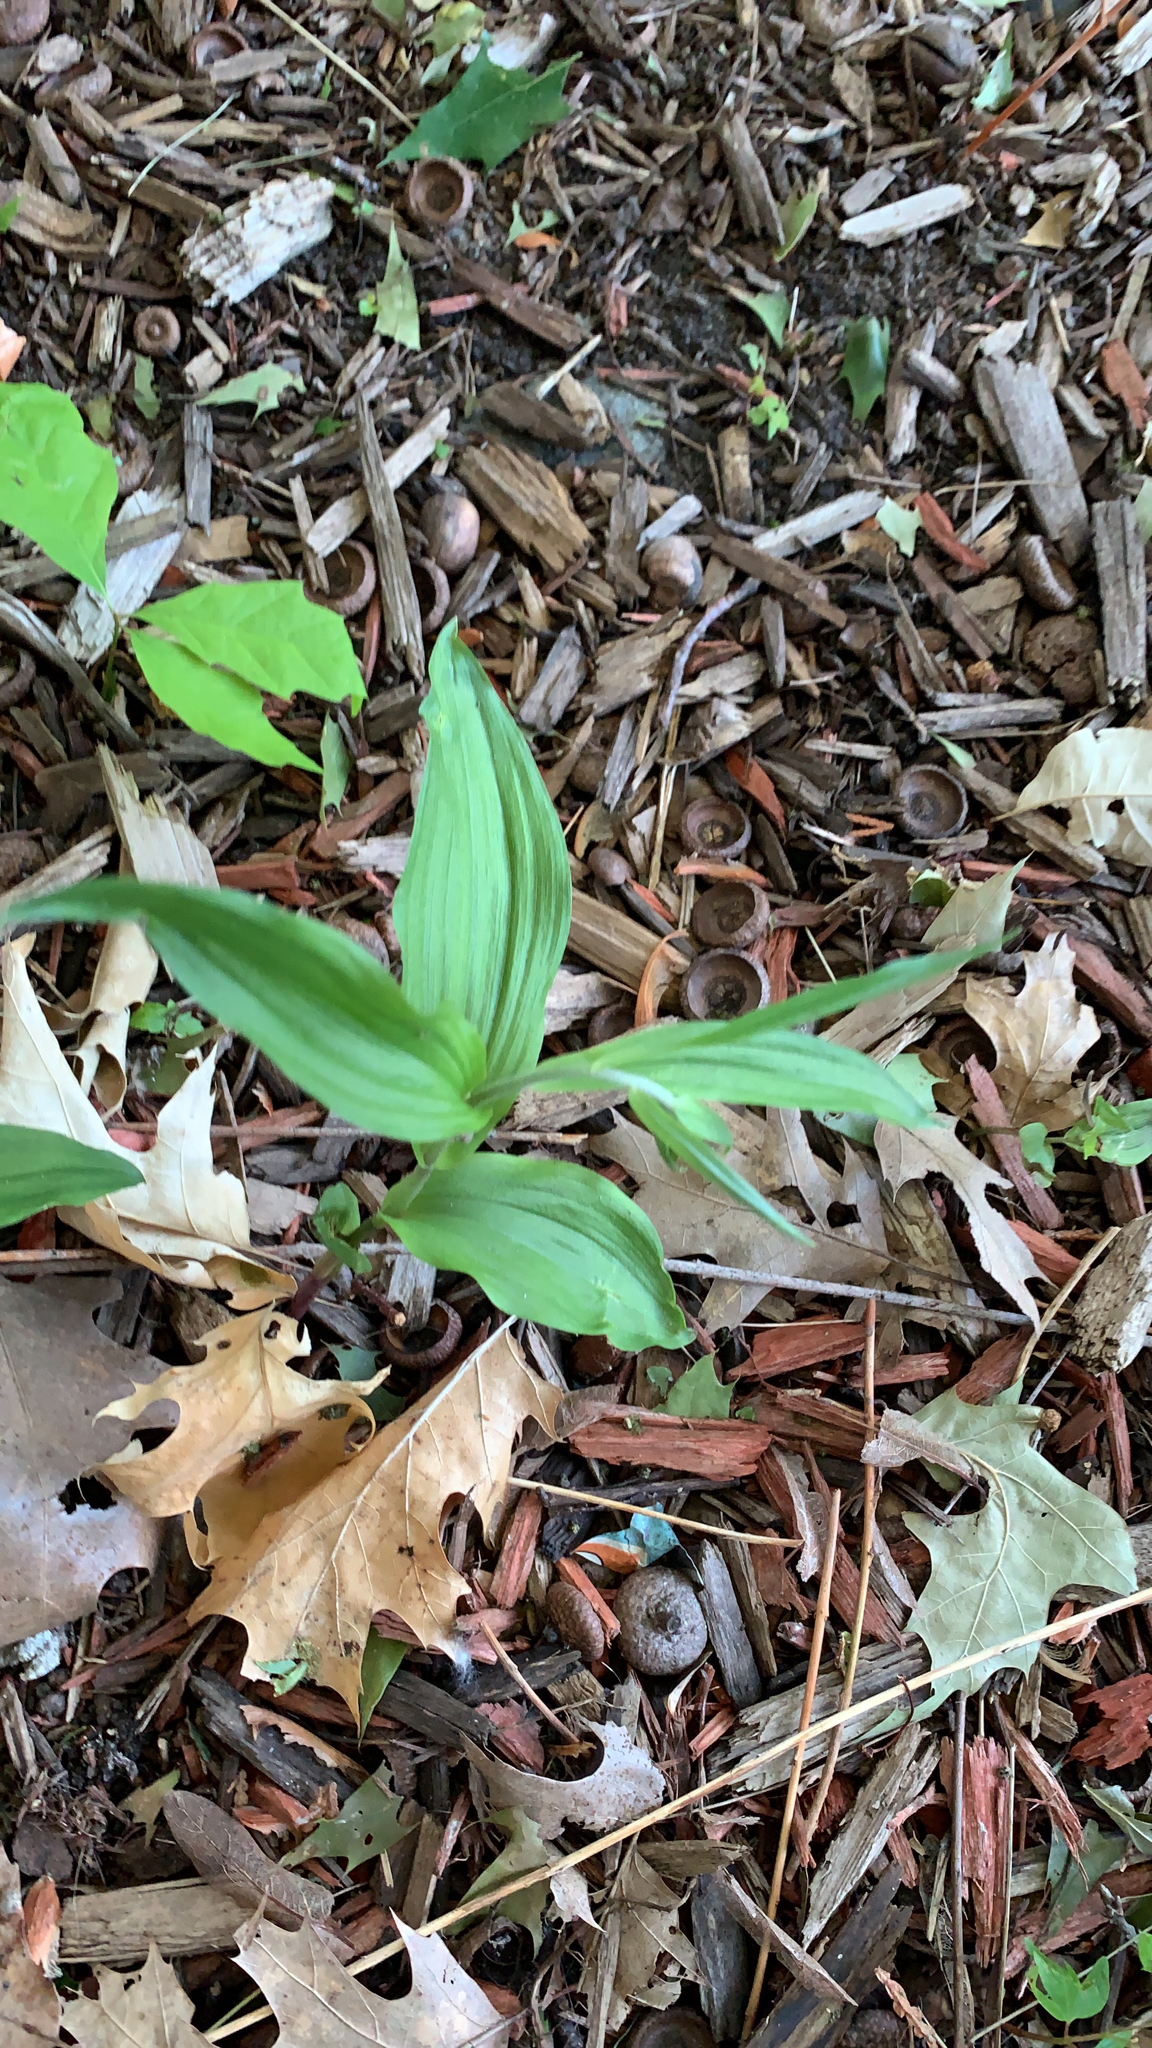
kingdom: Plantae
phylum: Tracheophyta
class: Liliopsida
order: Asparagales
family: Orchidaceae
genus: Epipactis
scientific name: Epipactis helleborine
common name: Broad-leaved helleborine
